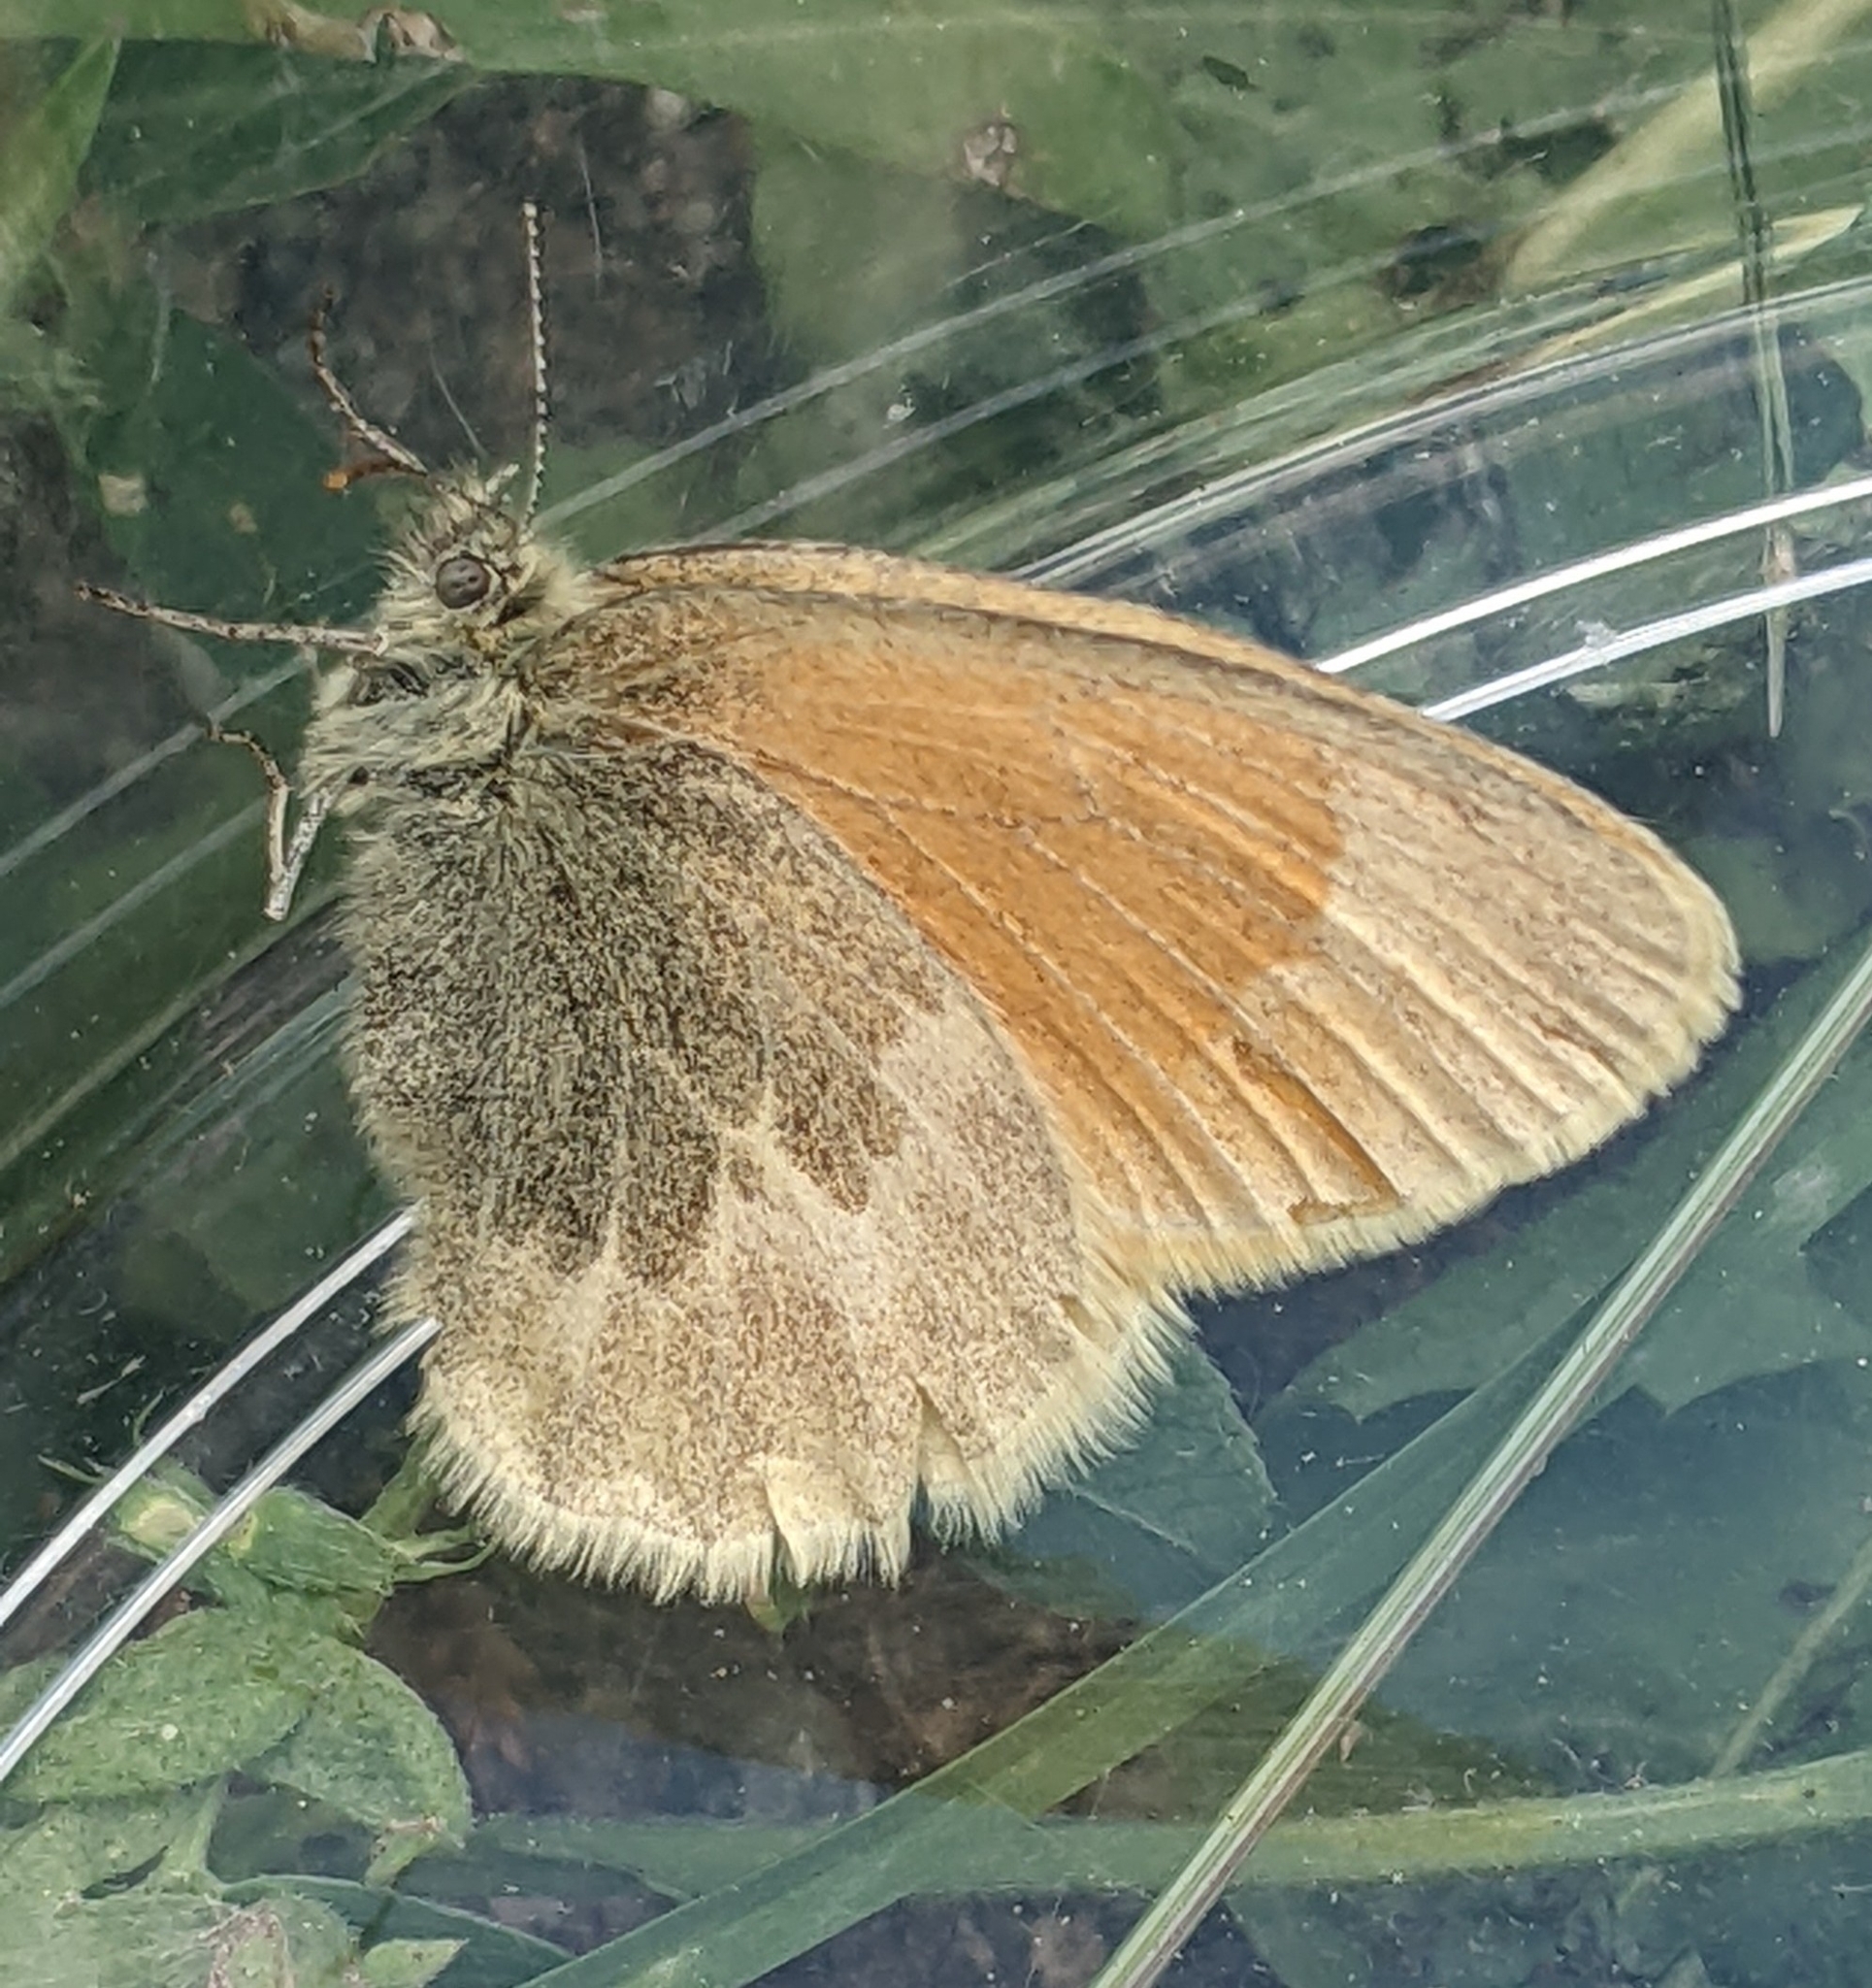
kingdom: Animalia
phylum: Arthropoda
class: Insecta
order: Lepidoptera
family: Nymphalidae
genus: Coenonympha
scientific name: Coenonympha california
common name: Common ringlet
